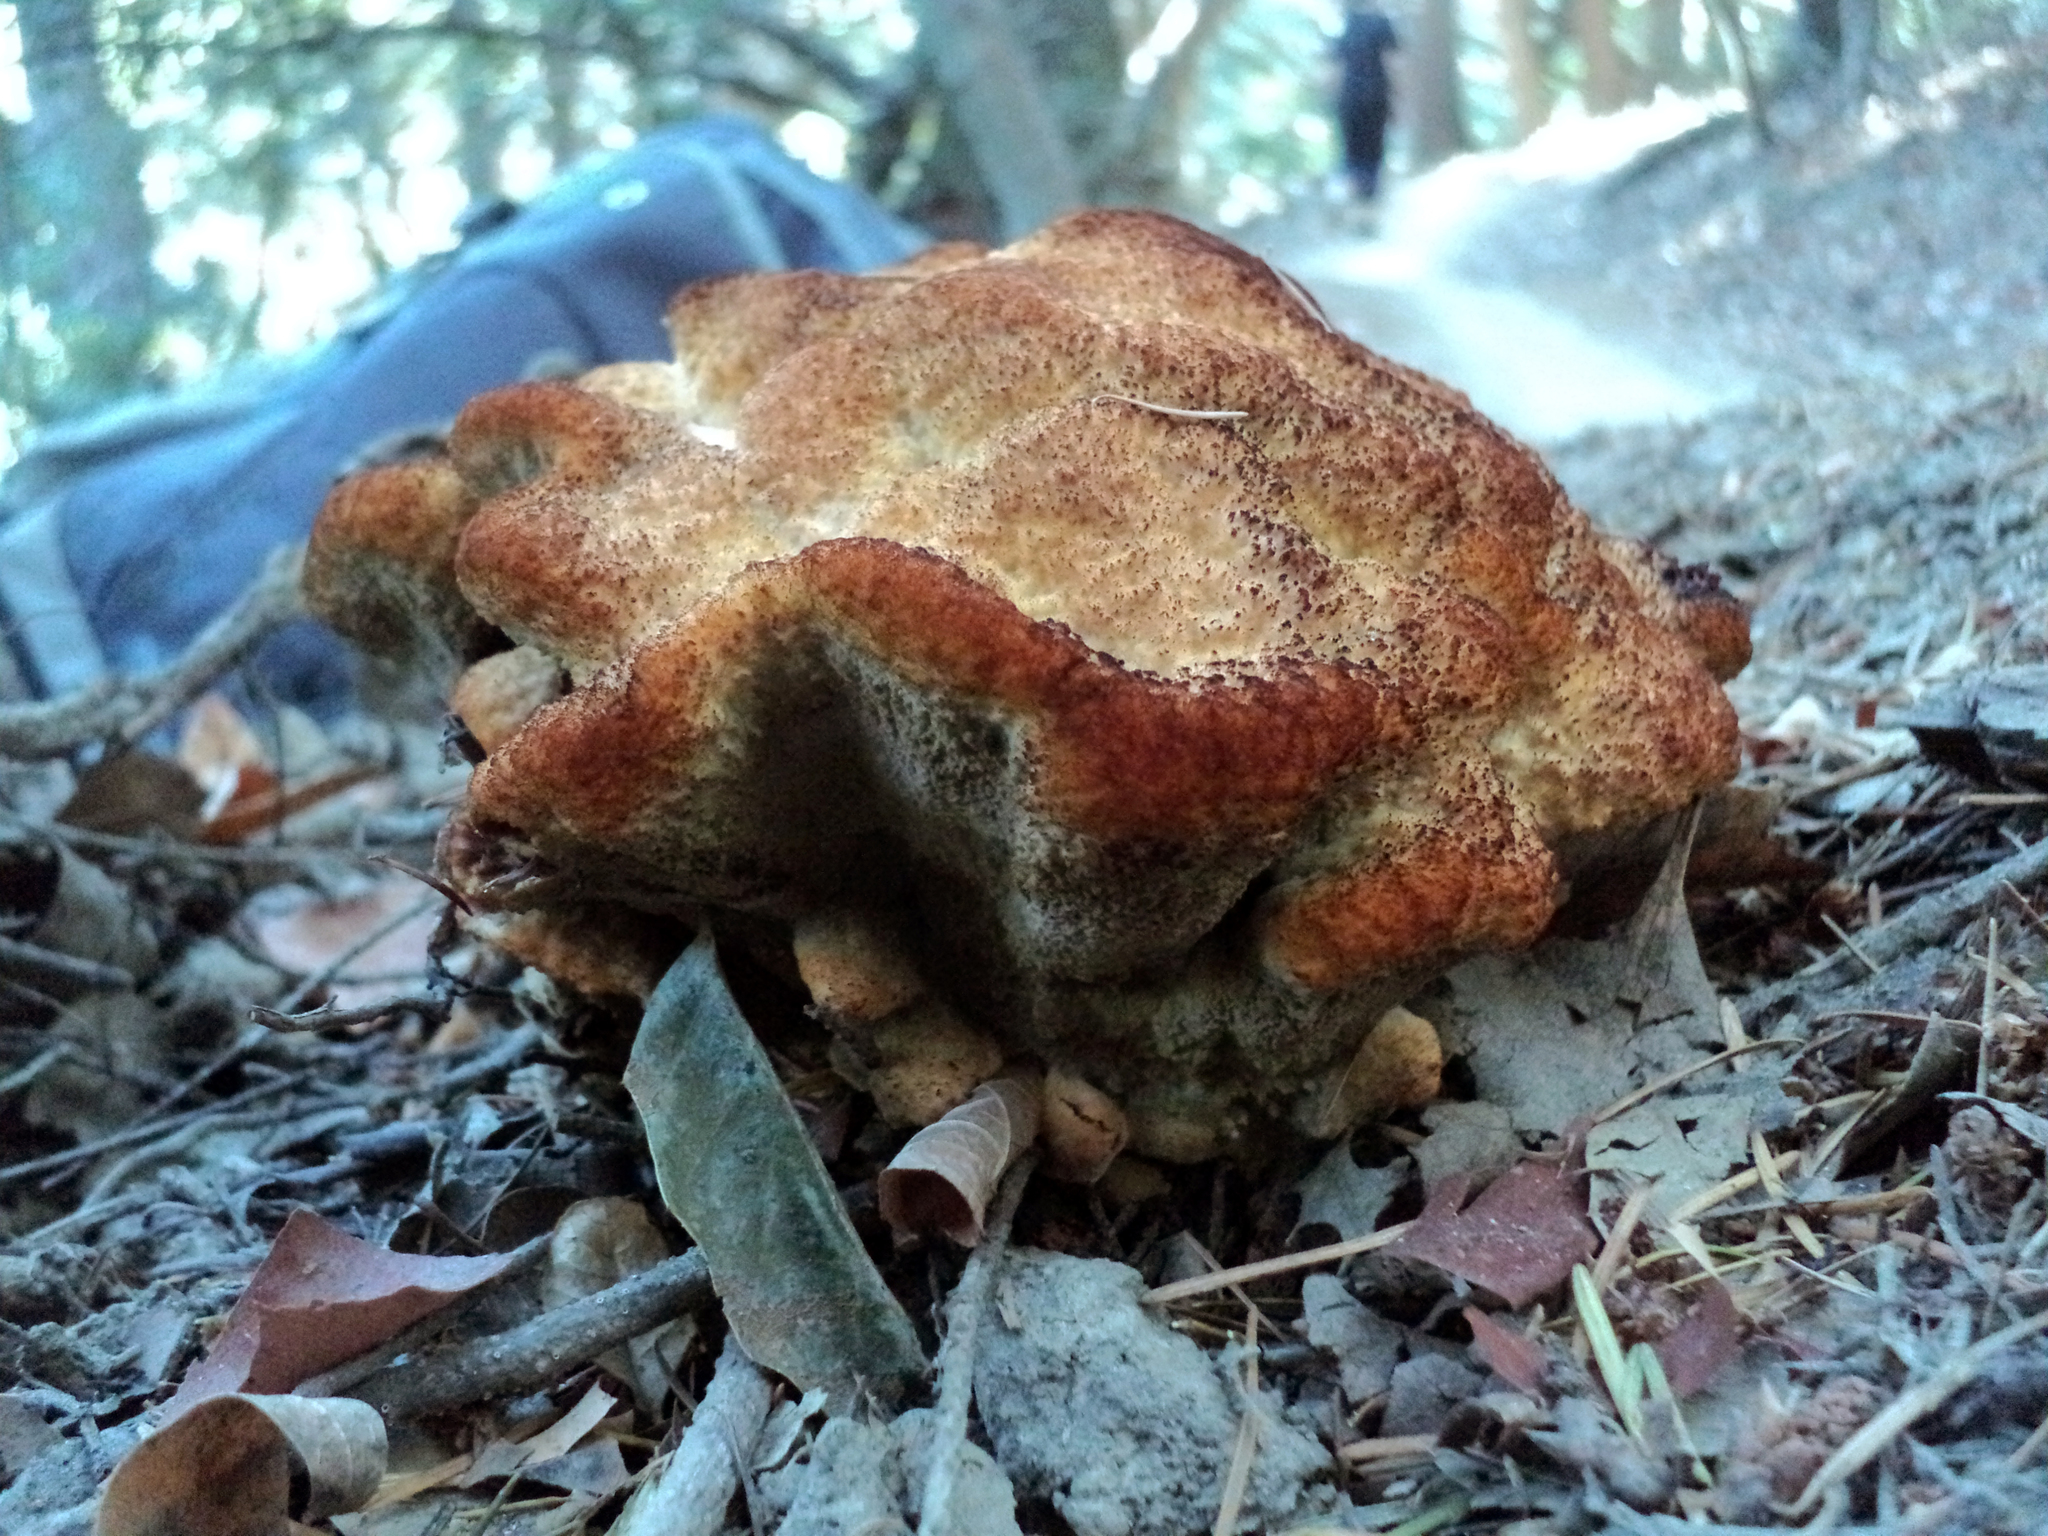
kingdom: Fungi
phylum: Basidiomycota
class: Agaricomycetes
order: Polyporales
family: Laetiporaceae
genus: Phaeolus
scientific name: Phaeolus schweinitzii
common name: Dyer's mazegill
